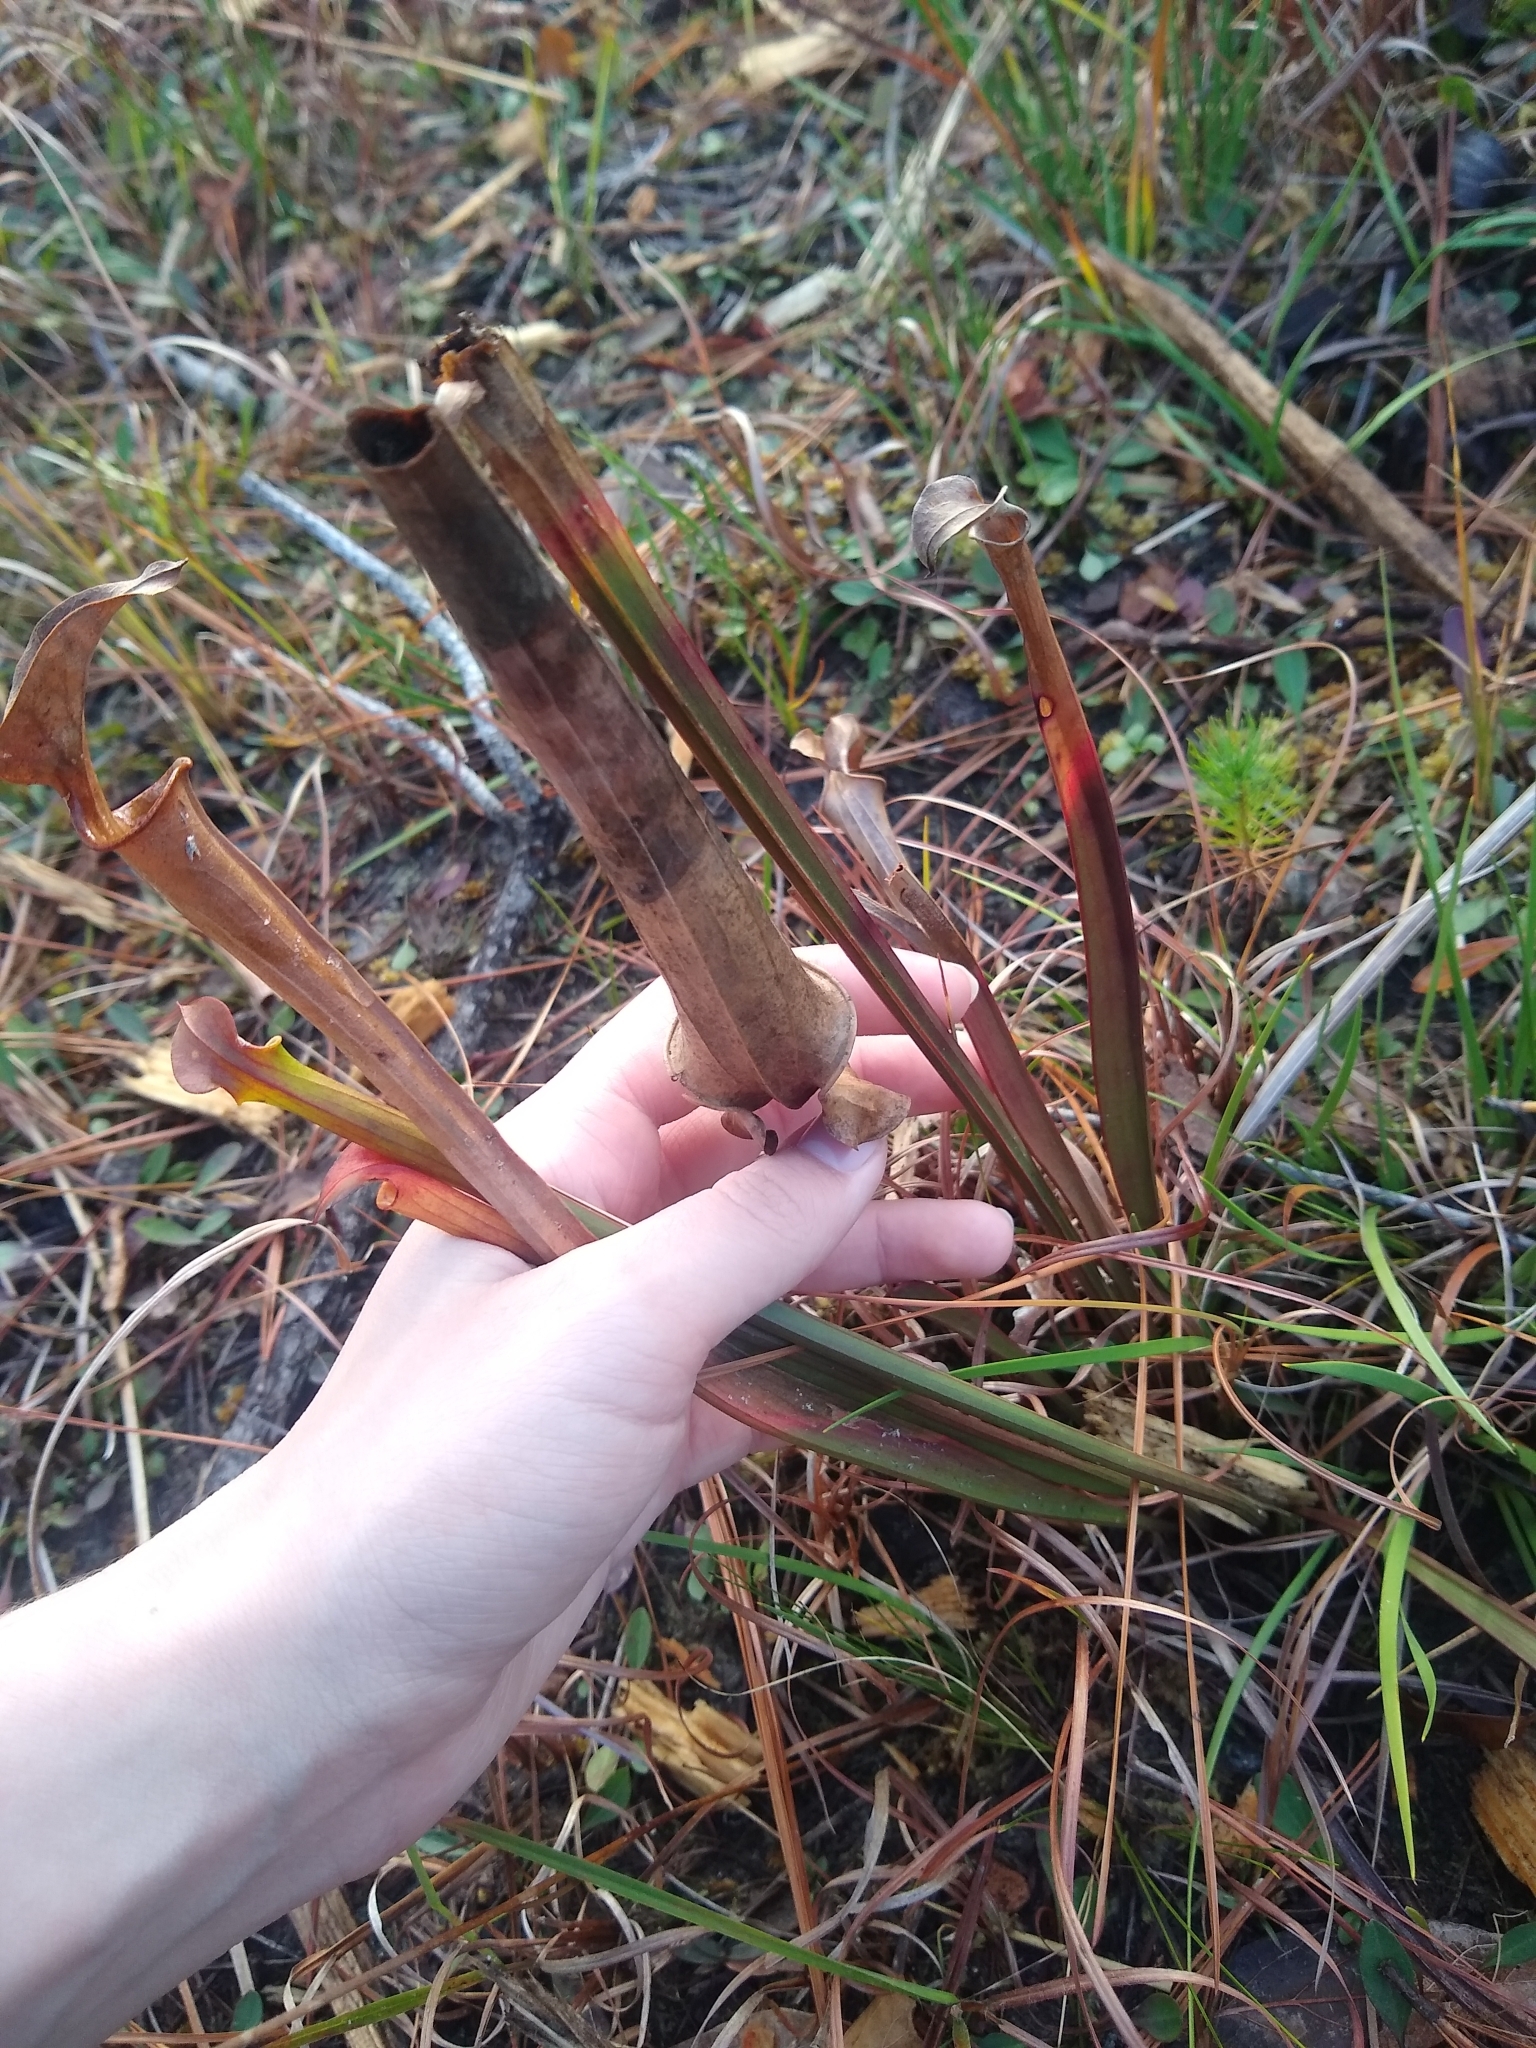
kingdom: Plantae
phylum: Tracheophyta
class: Magnoliopsida
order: Ericales
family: Sarraceniaceae
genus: Sarracenia
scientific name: Sarracenia flava
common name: Trumpets
